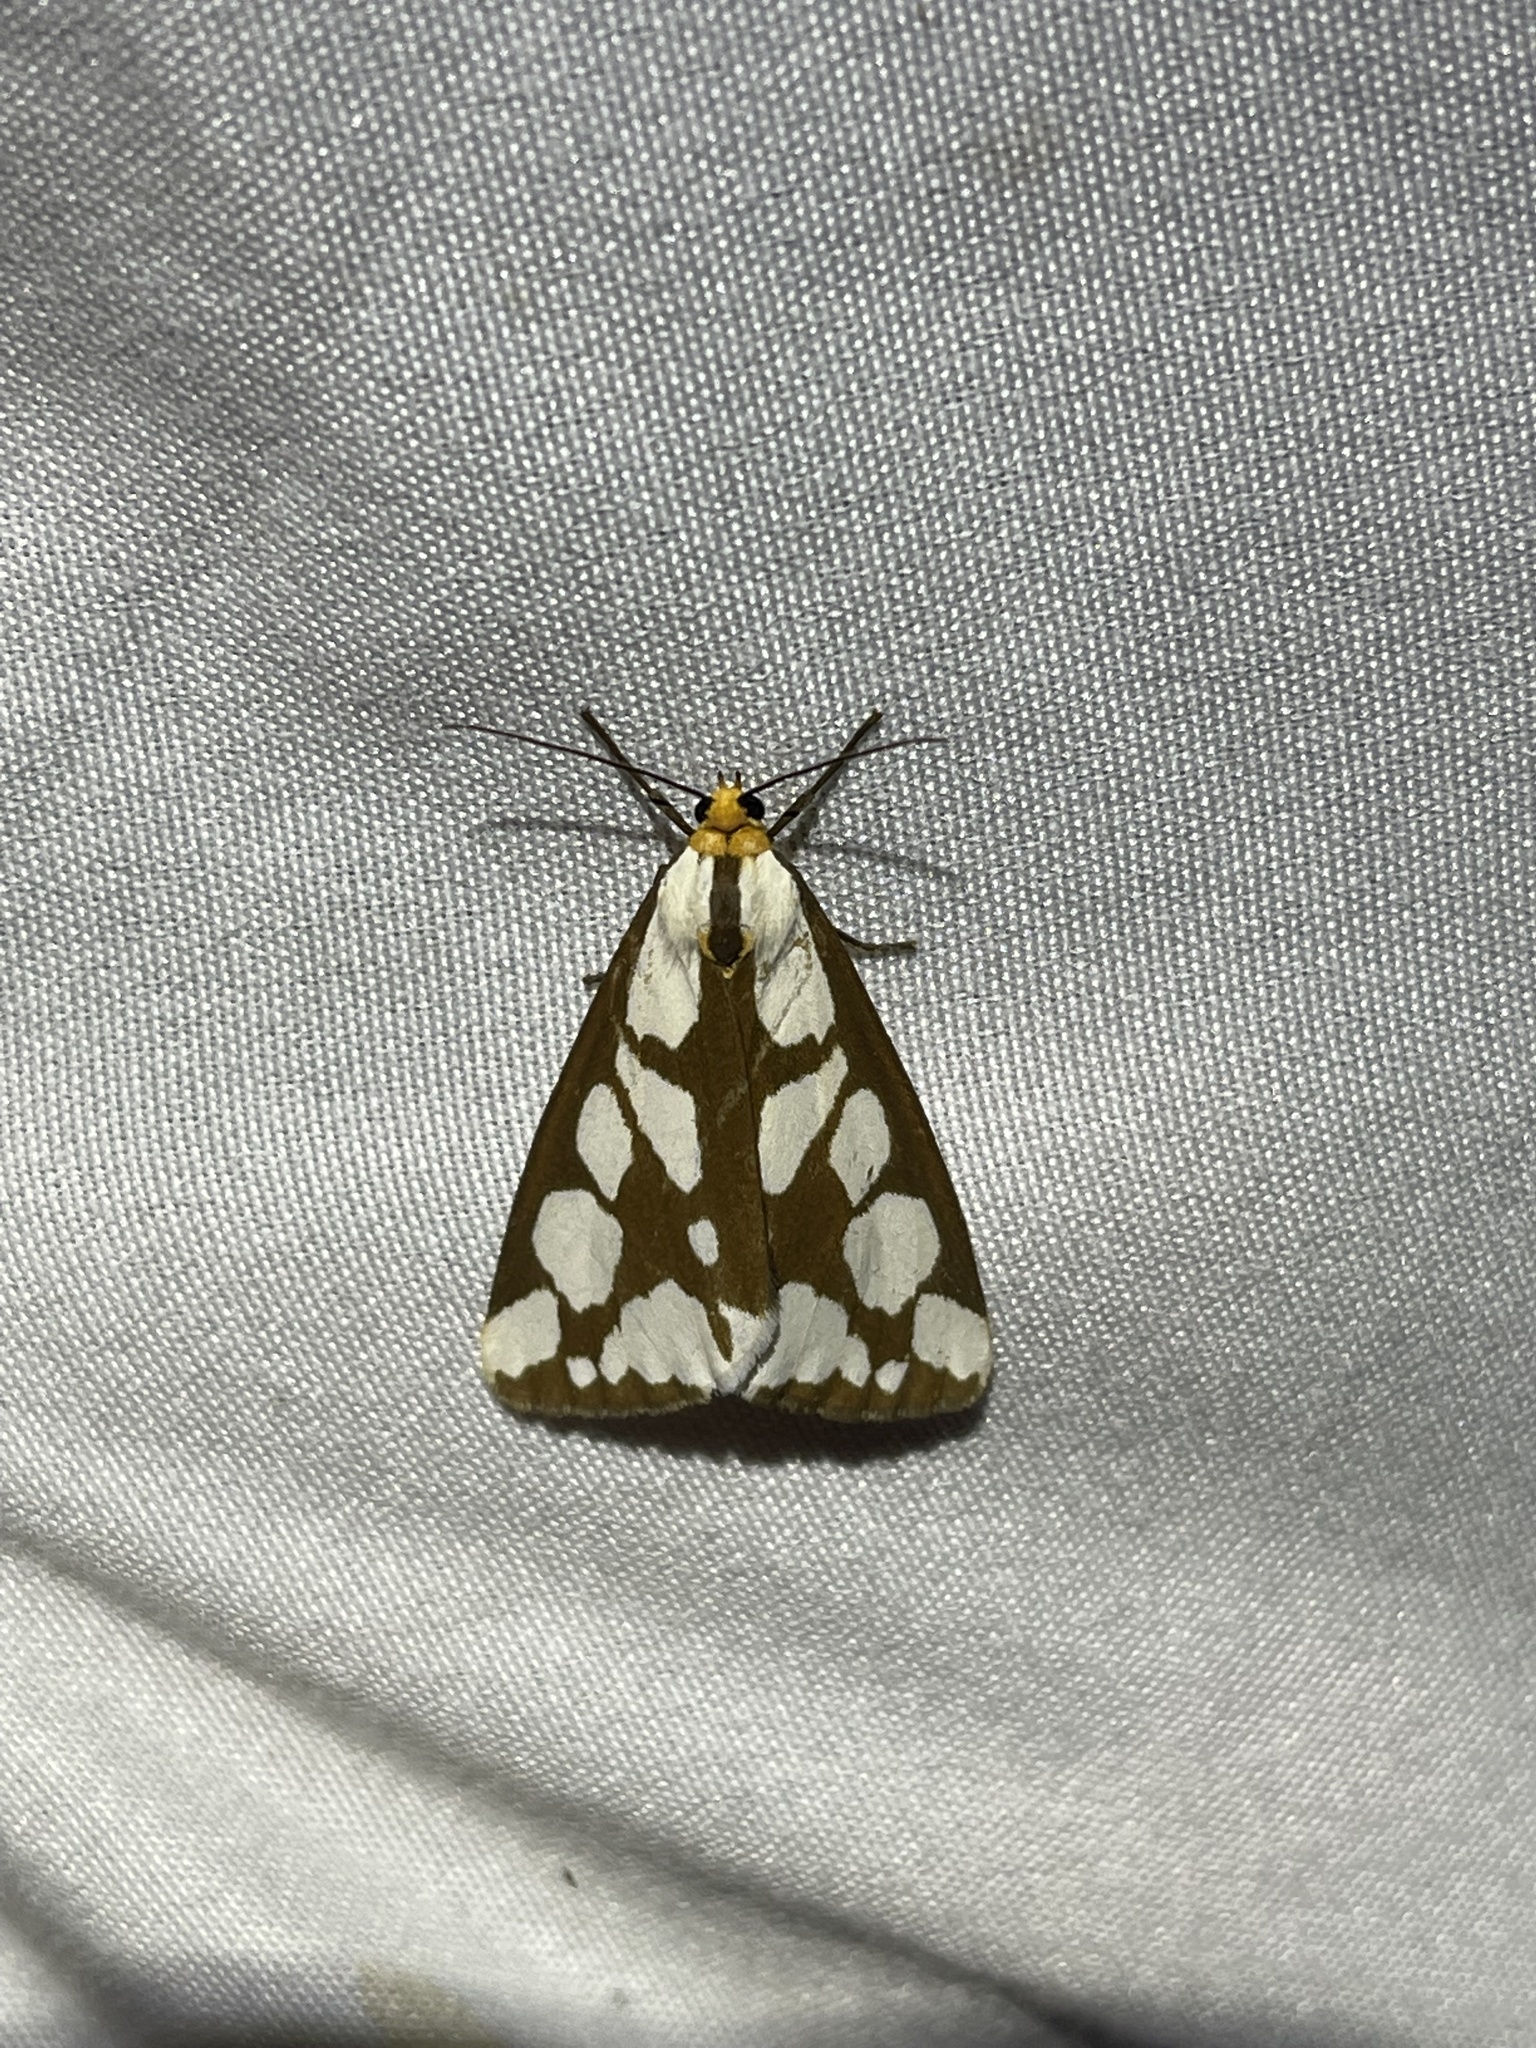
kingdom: Animalia
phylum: Arthropoda
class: Insecta
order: Lepidoptera
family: Erebidae
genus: Haploa
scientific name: Haploa confusa
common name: Confused haploa moth
